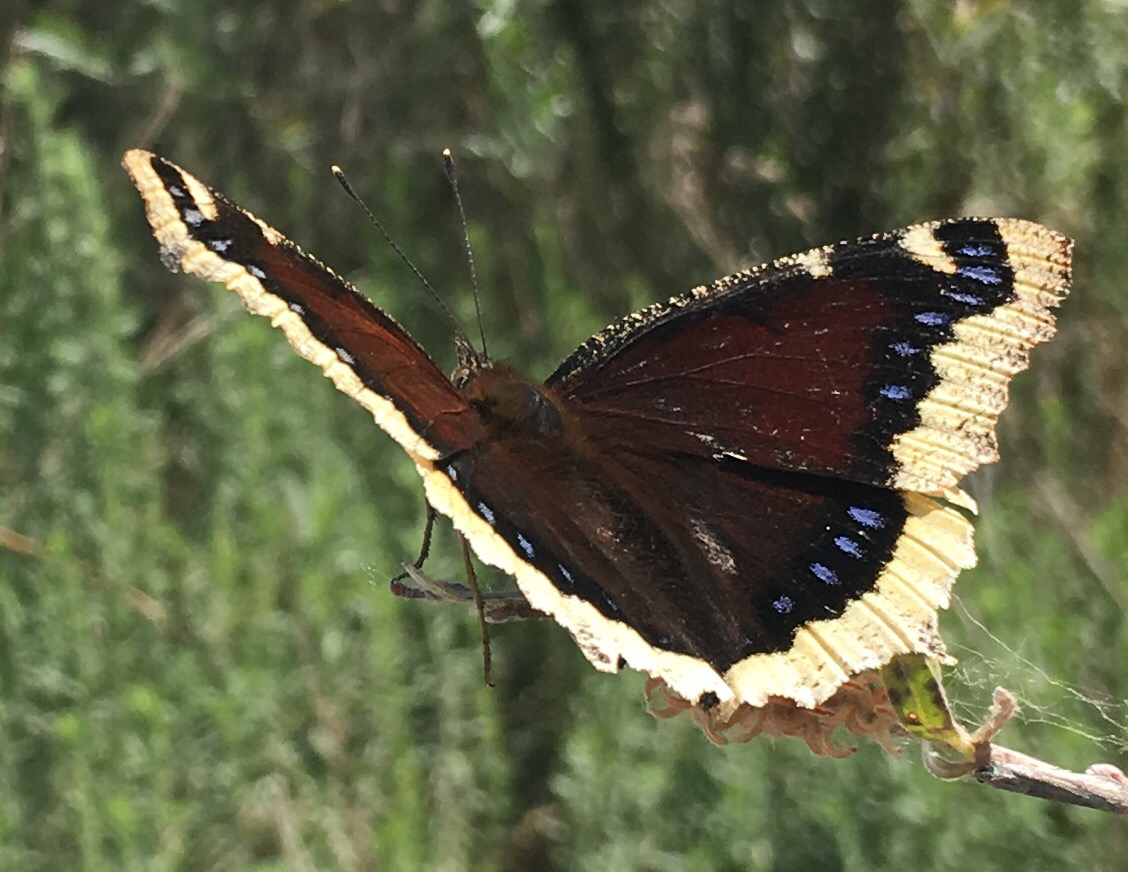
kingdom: Animalia
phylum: Arthropoda
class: Insecta
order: Lepidoptera
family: Nymphalidae
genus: Nymphalis
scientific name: Nymphalis antiopa
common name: Camberwell beauty
